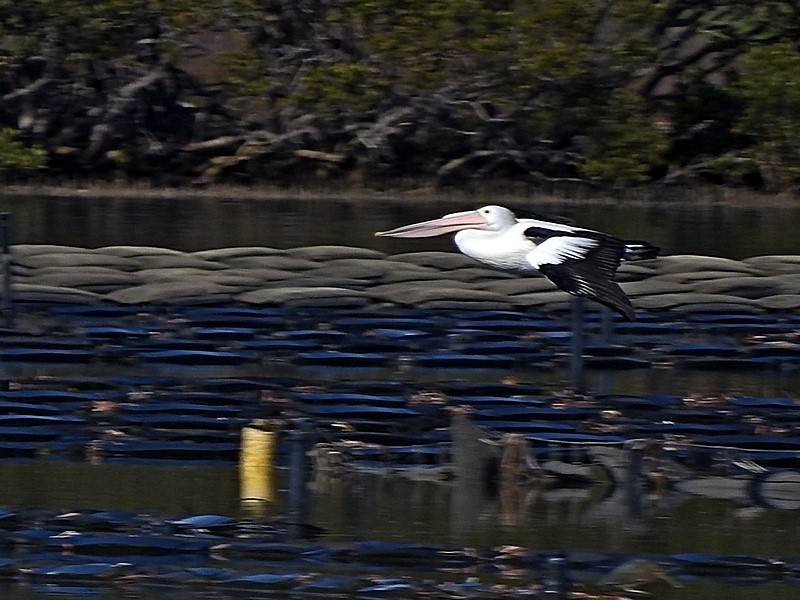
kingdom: Animalia
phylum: Chordata
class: Aves
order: Pelecaniformes
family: Pelecanidae
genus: Pelecanus
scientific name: Pelecanus conspicillatus
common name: Australian pelican
